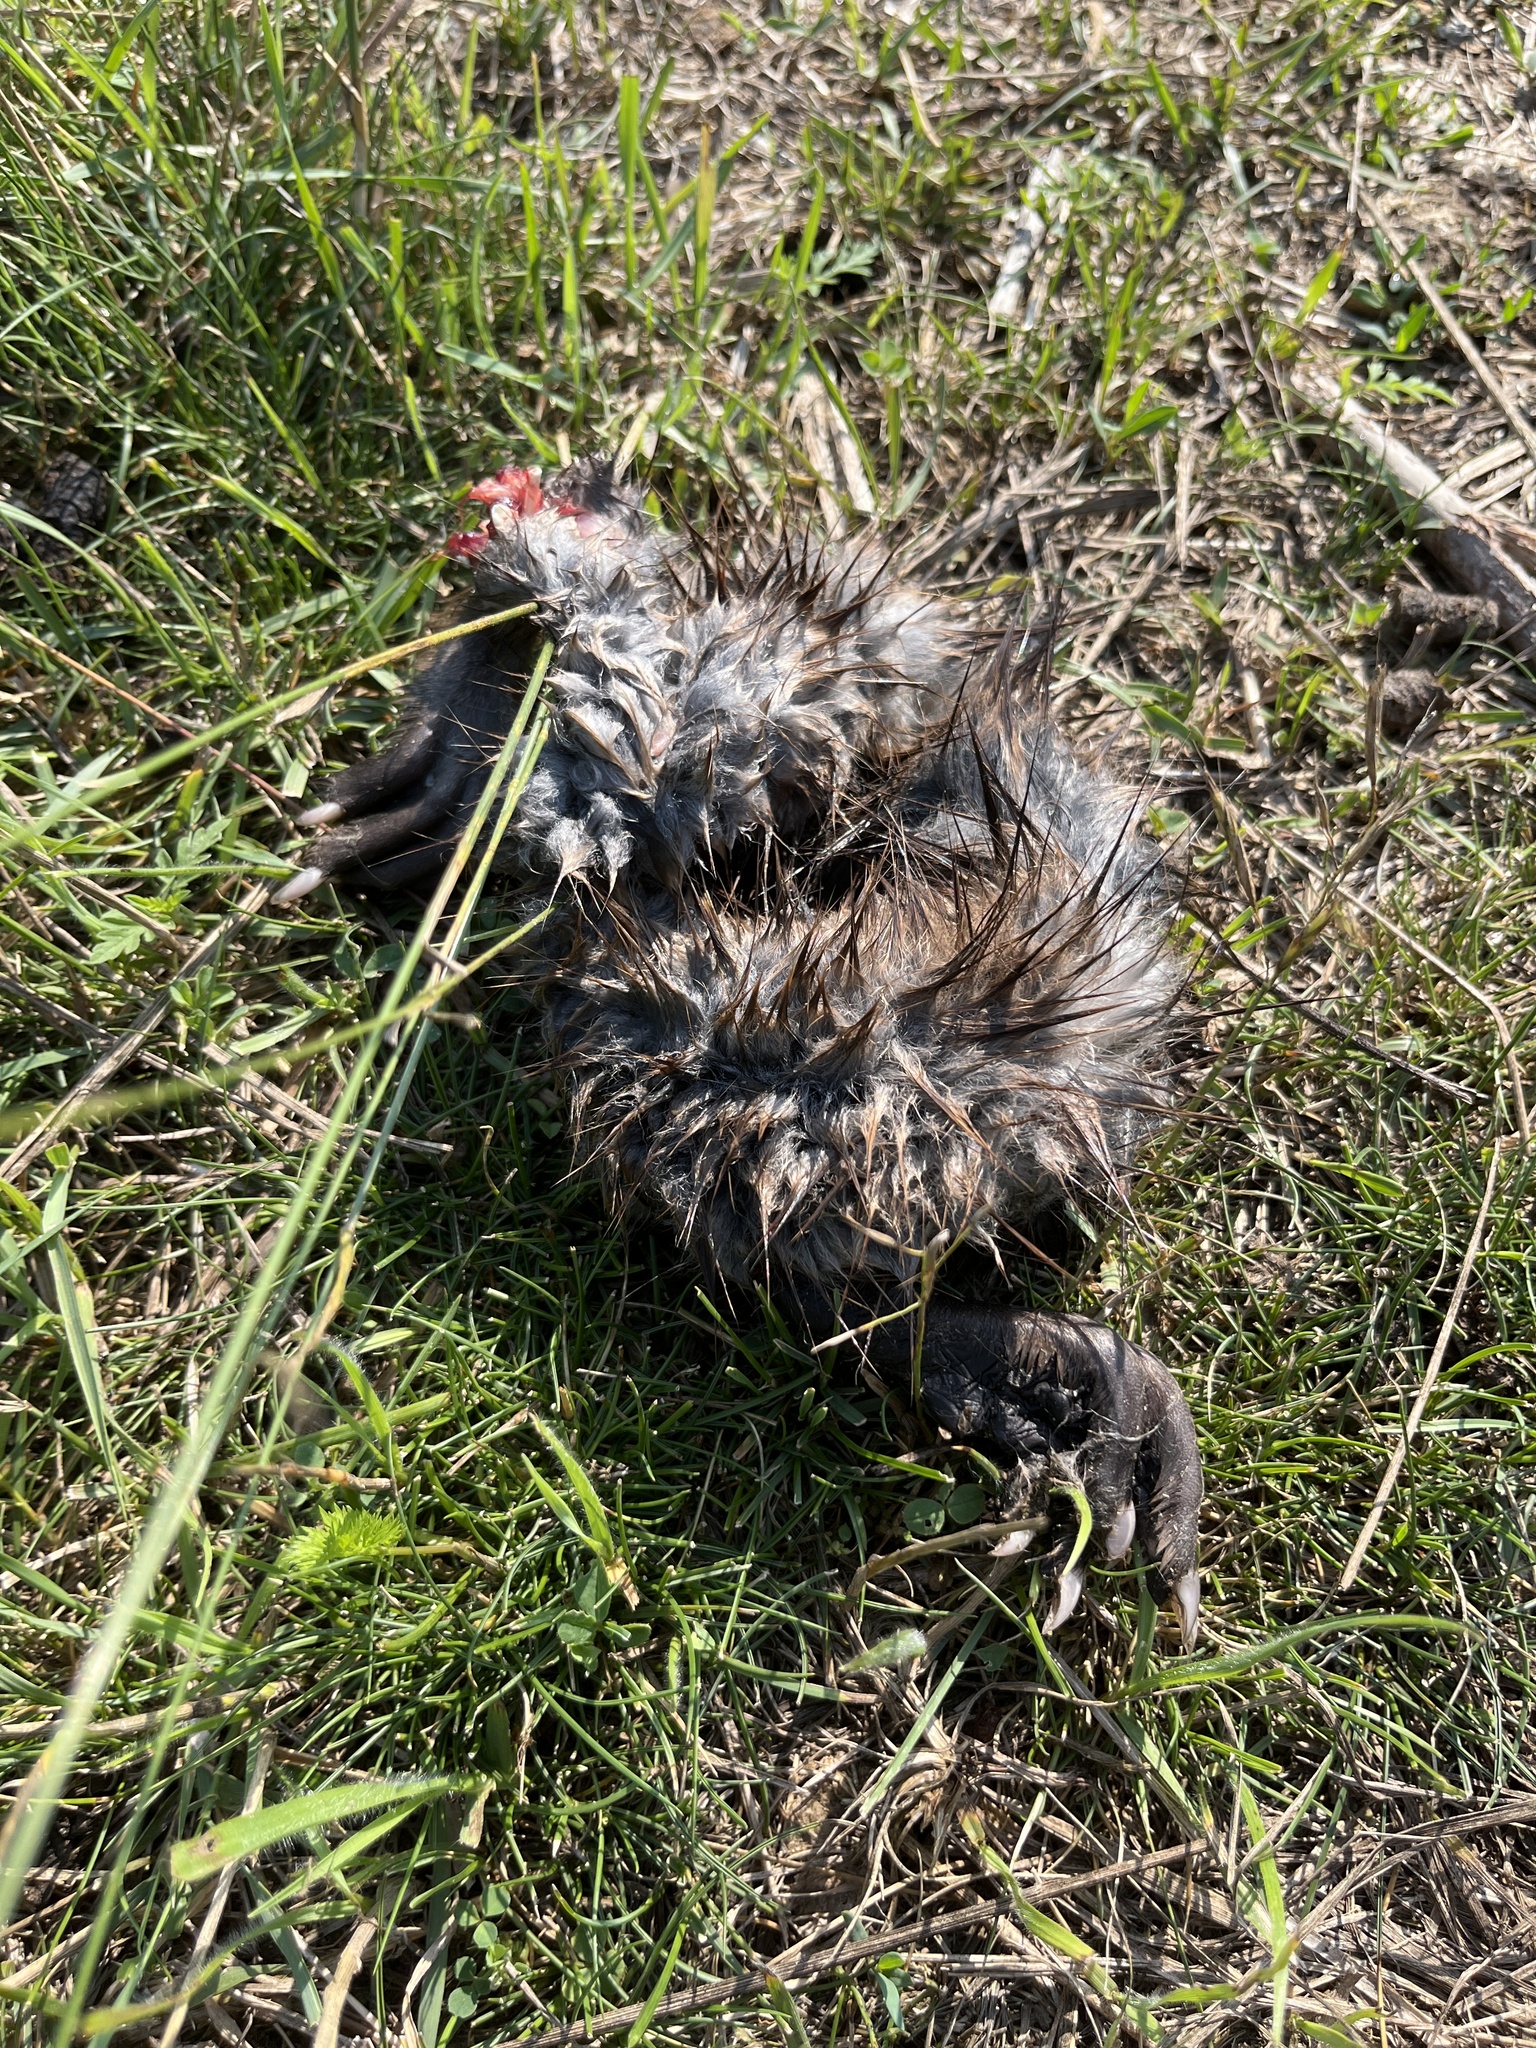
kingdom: Animalia
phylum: Chordata
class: Mammalia
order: Rodentia
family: Cricetidae
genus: Ondatra
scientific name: Ondatra zibethicus
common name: Muskrat
